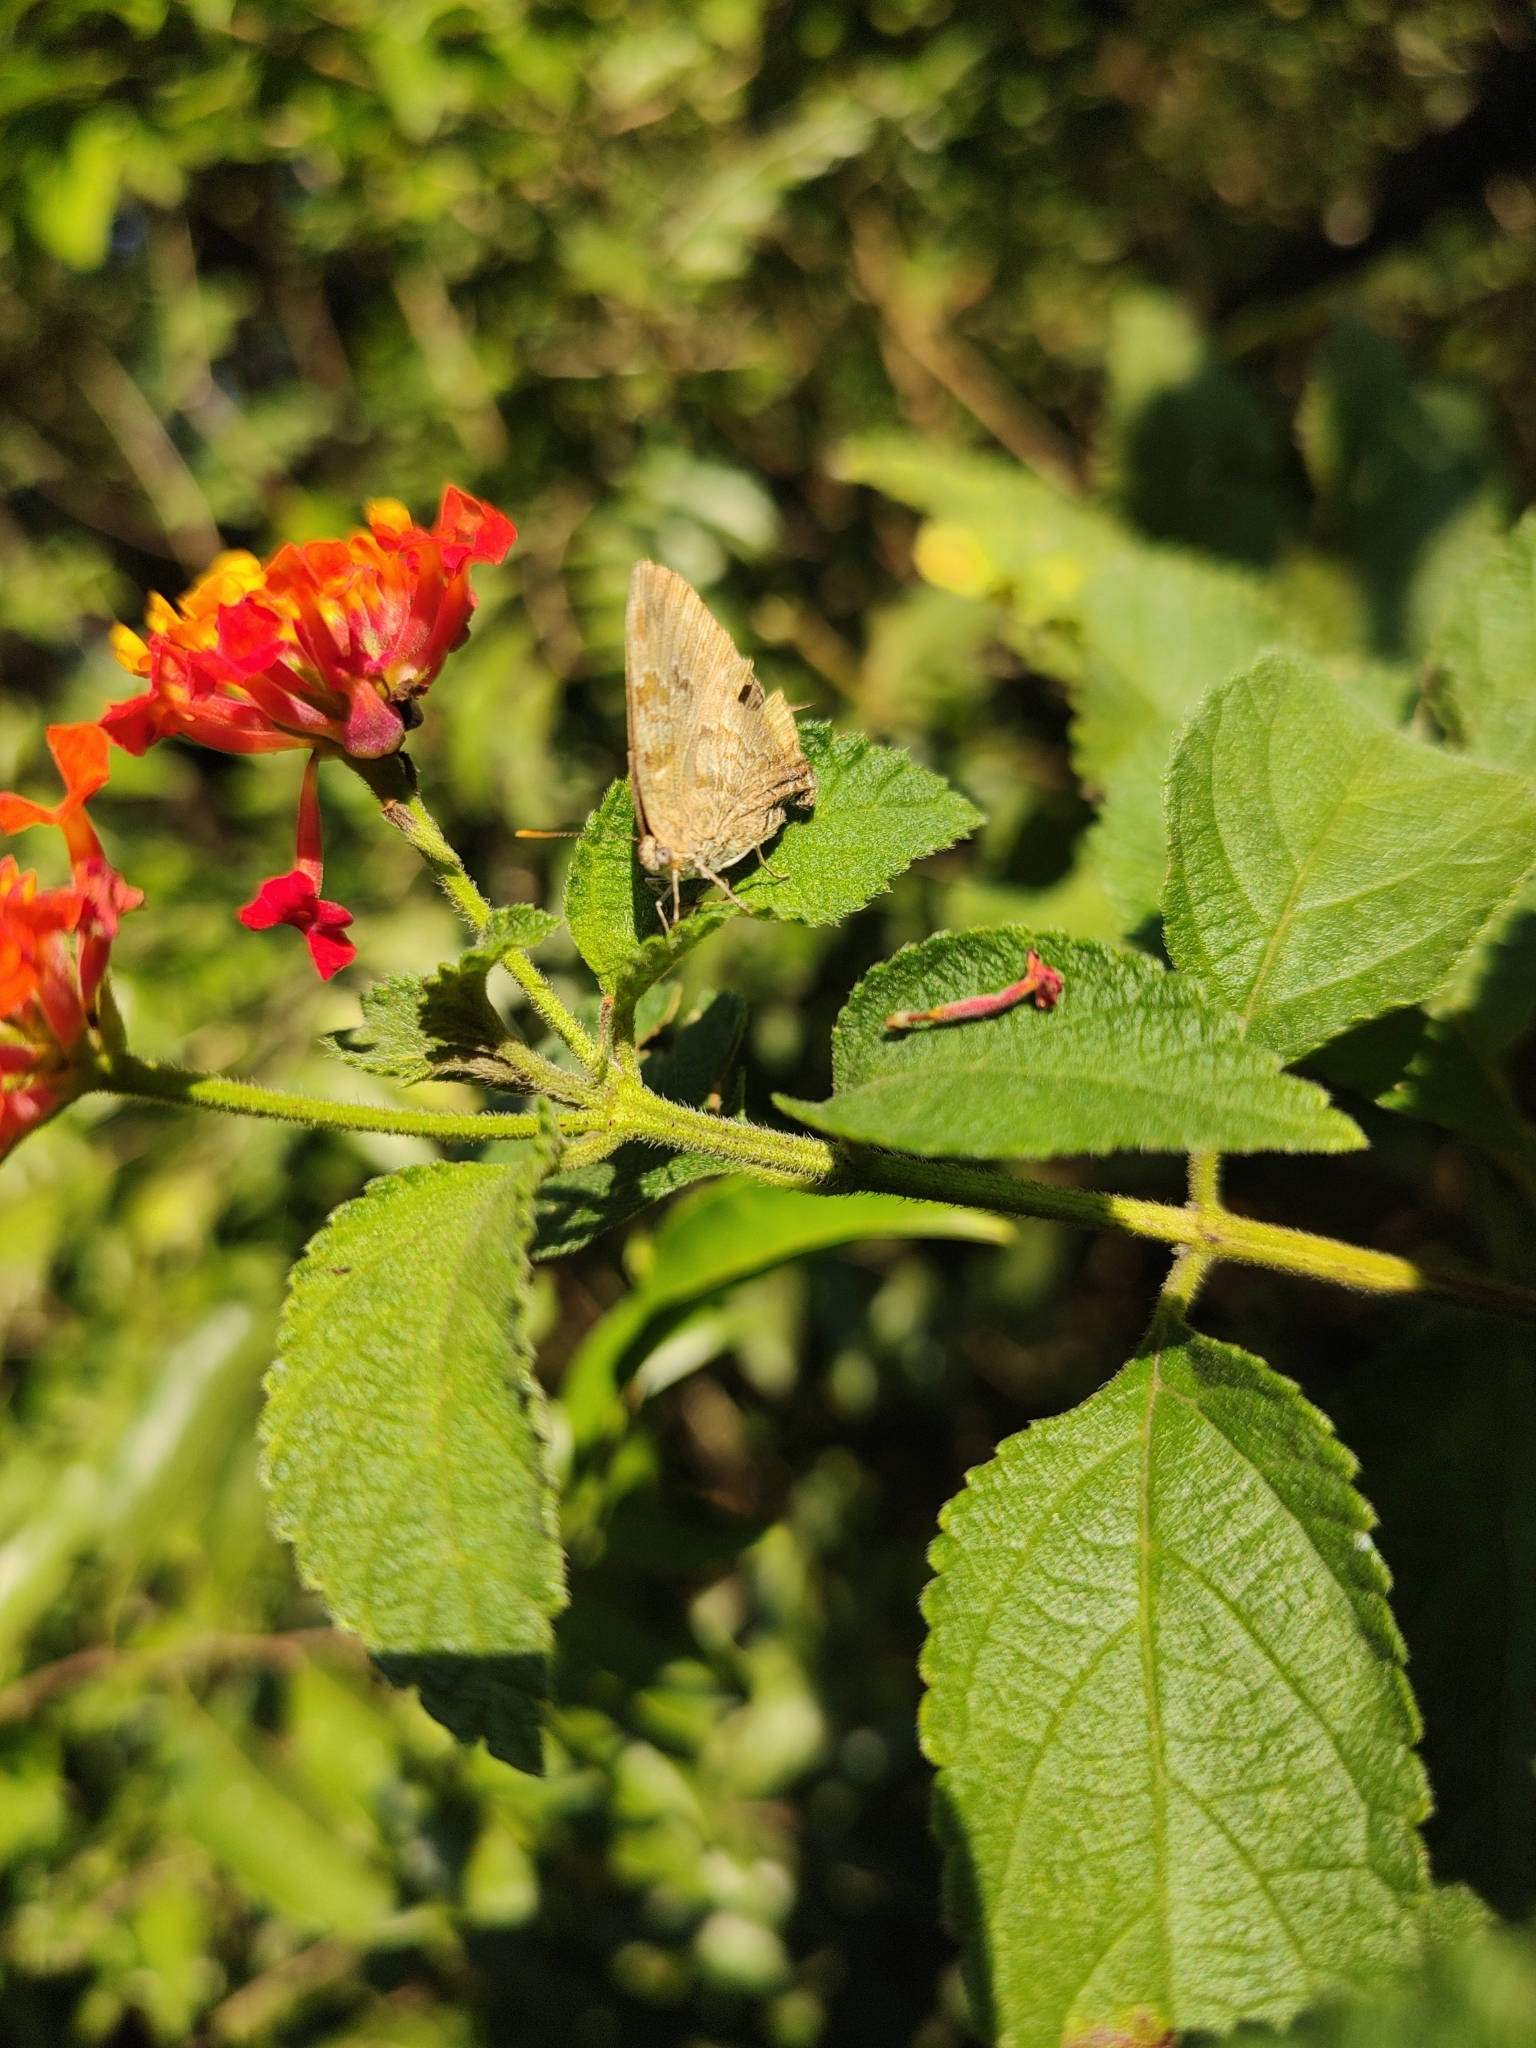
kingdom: Animalia
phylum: Arthropoda
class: Insecta
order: Lepidoptera
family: Lycaenidae
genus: Rekoa
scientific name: Rekoa palegon
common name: Gold-bordered hairstreak
